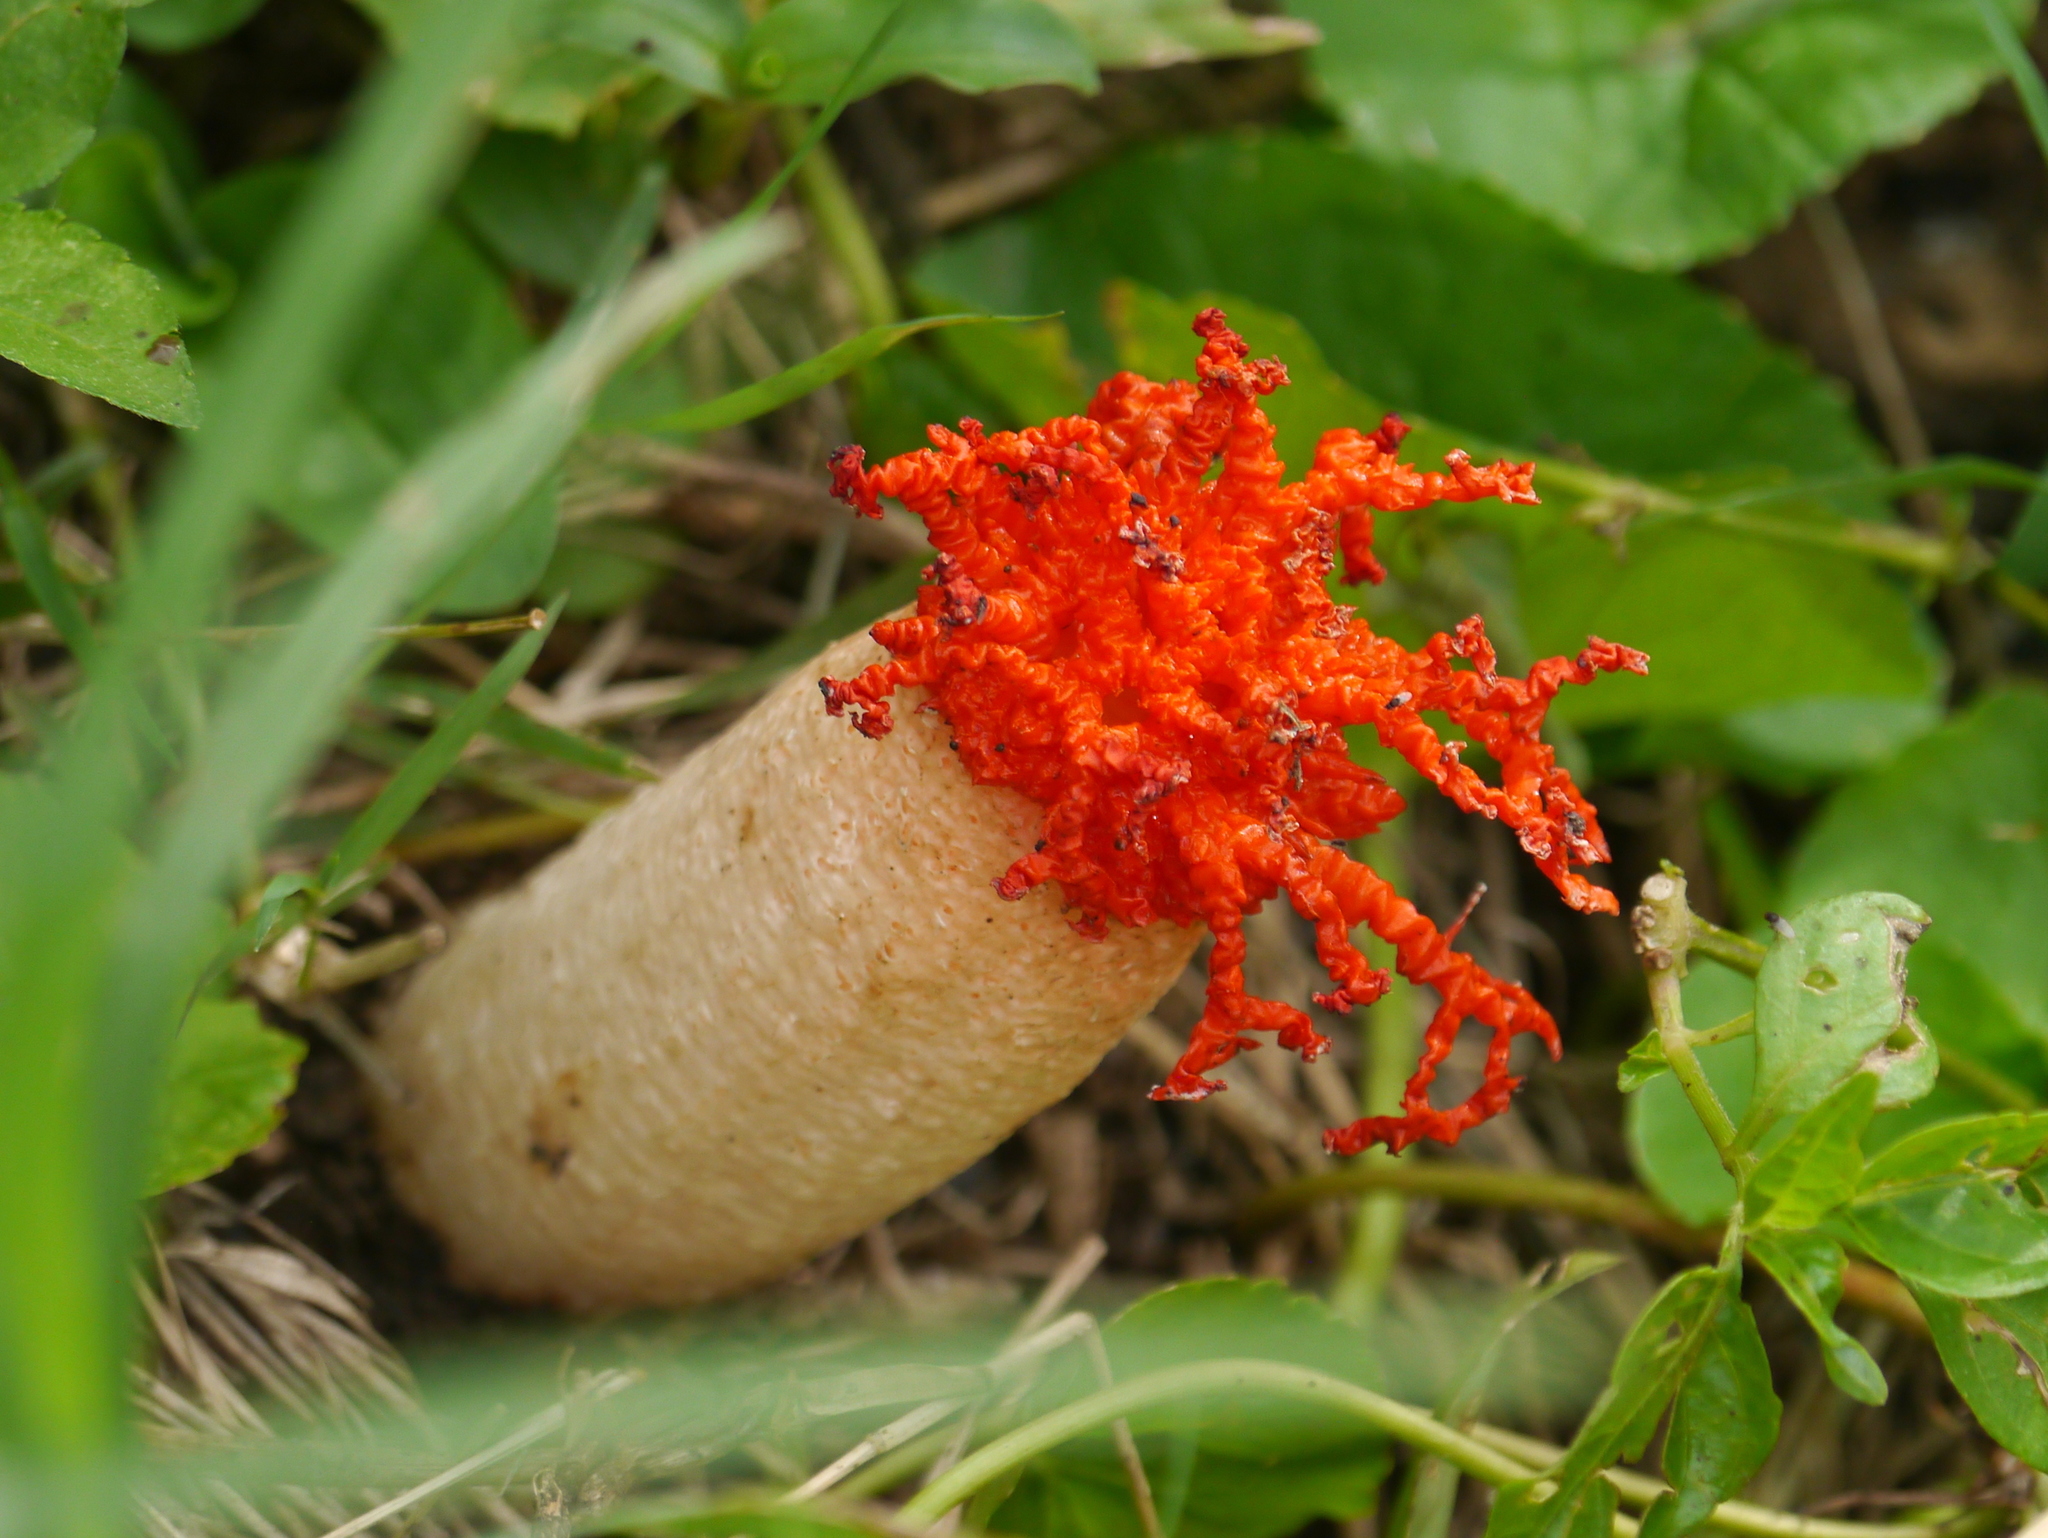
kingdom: Fungi
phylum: Basidiomycota
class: Agaricomycetes
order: Phallales
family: Phallaceae
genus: Lysurus
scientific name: Lysurus corallocephalus
